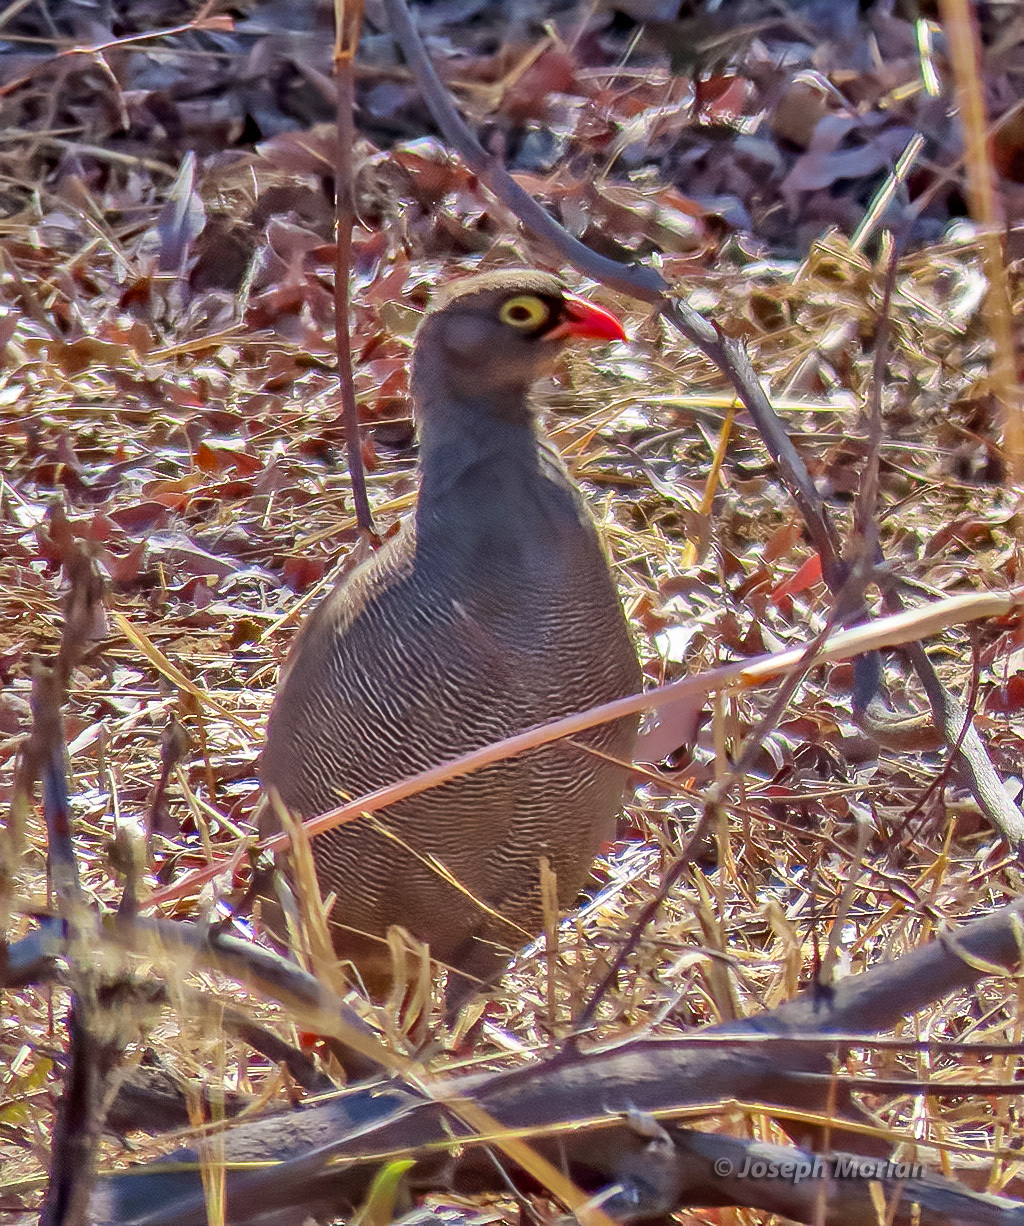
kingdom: Animalia
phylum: Chordata
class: Aves
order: Galliformes
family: Phasianidae
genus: Pternistis
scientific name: Pternistis adspersus
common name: Red-billed spurfowl
